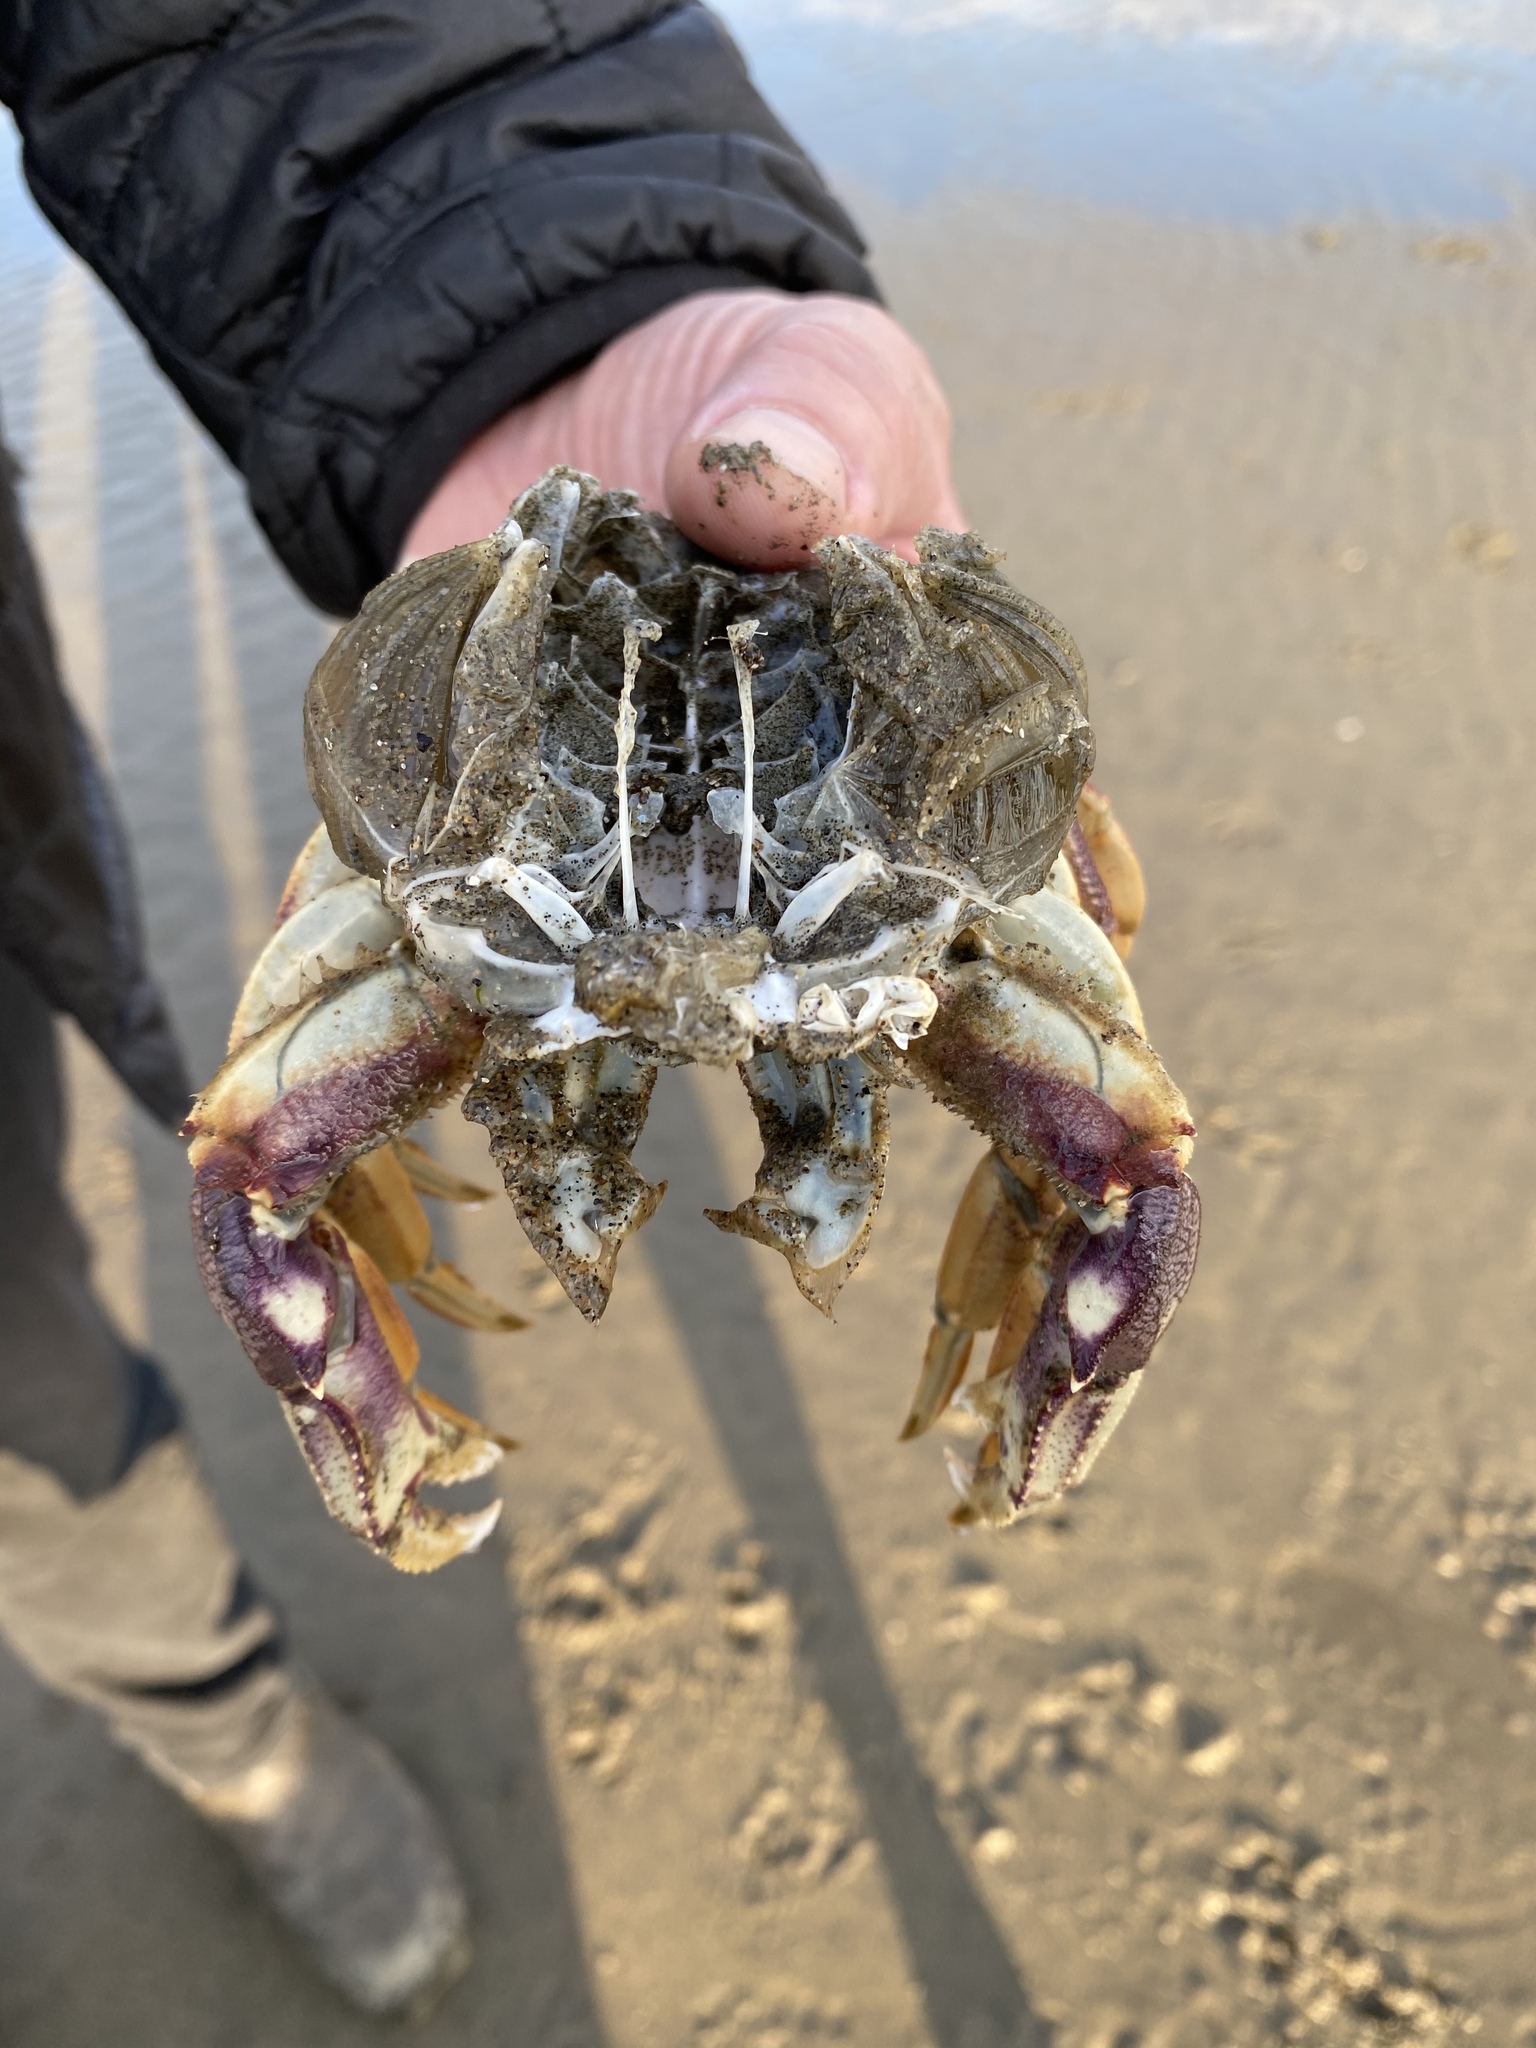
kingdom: Animalia
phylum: Arthropoda
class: Malacostraca
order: Decapoda
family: Cancridae
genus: Metacarcinus
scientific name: Metacarcinus magister
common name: Californian crab
